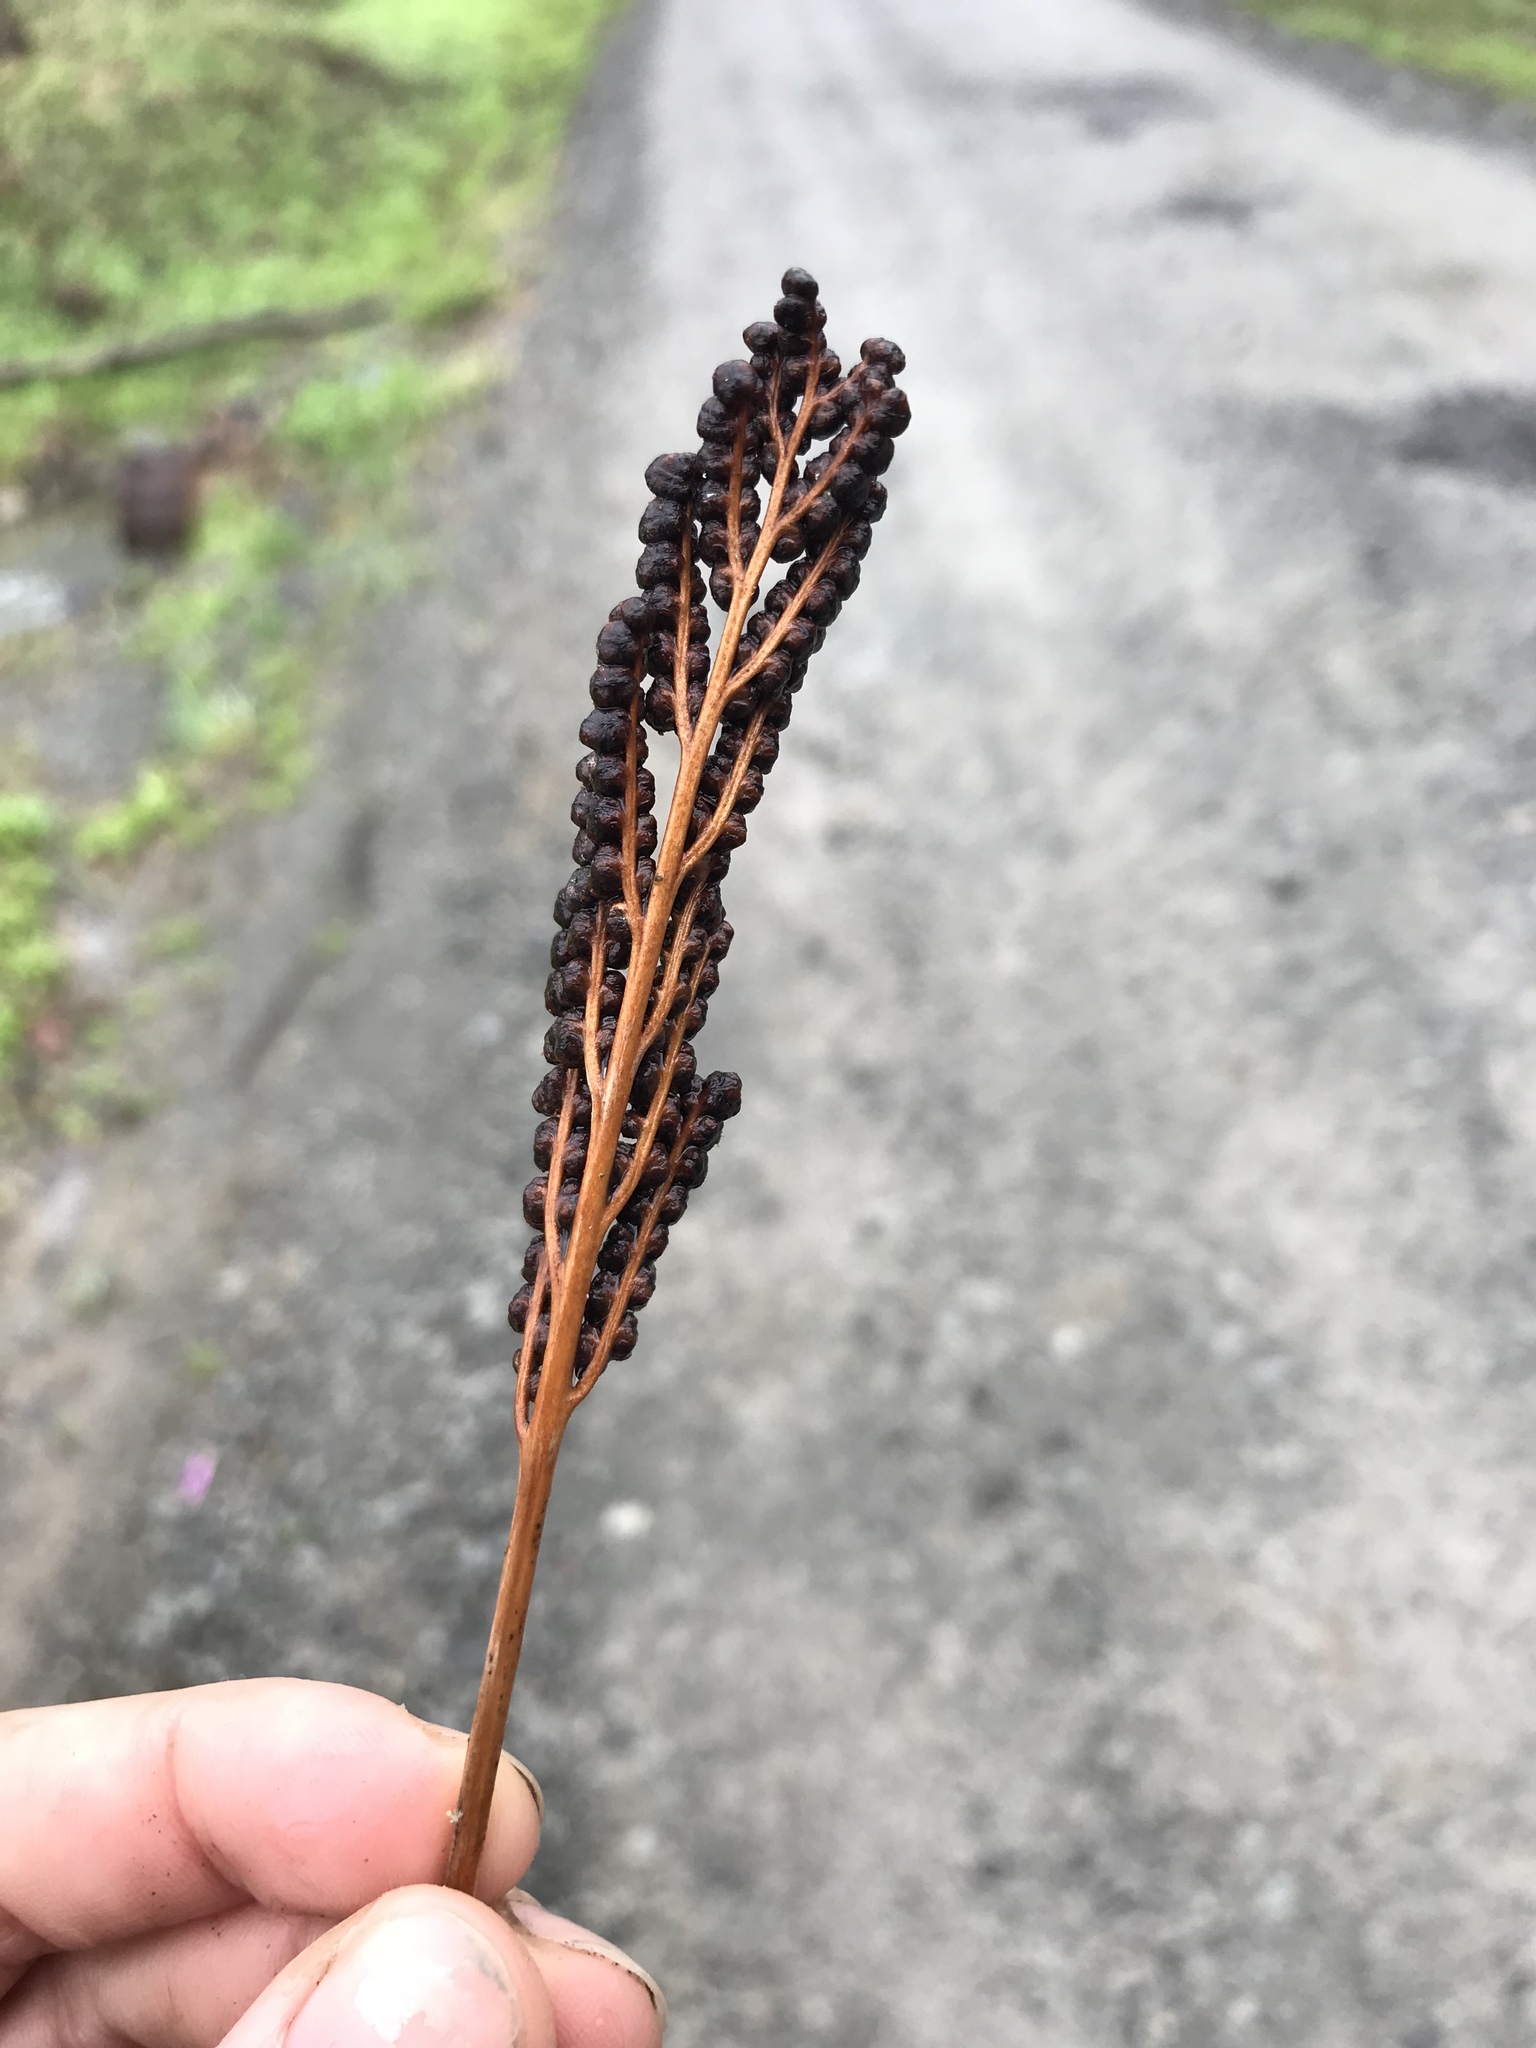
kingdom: Plantae
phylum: Tracheophyta
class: Polypodiopsida
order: Polypodiales
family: Onocleaceae
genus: Onoclea
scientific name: Onoclea sensibilis
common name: Sensitive fern
